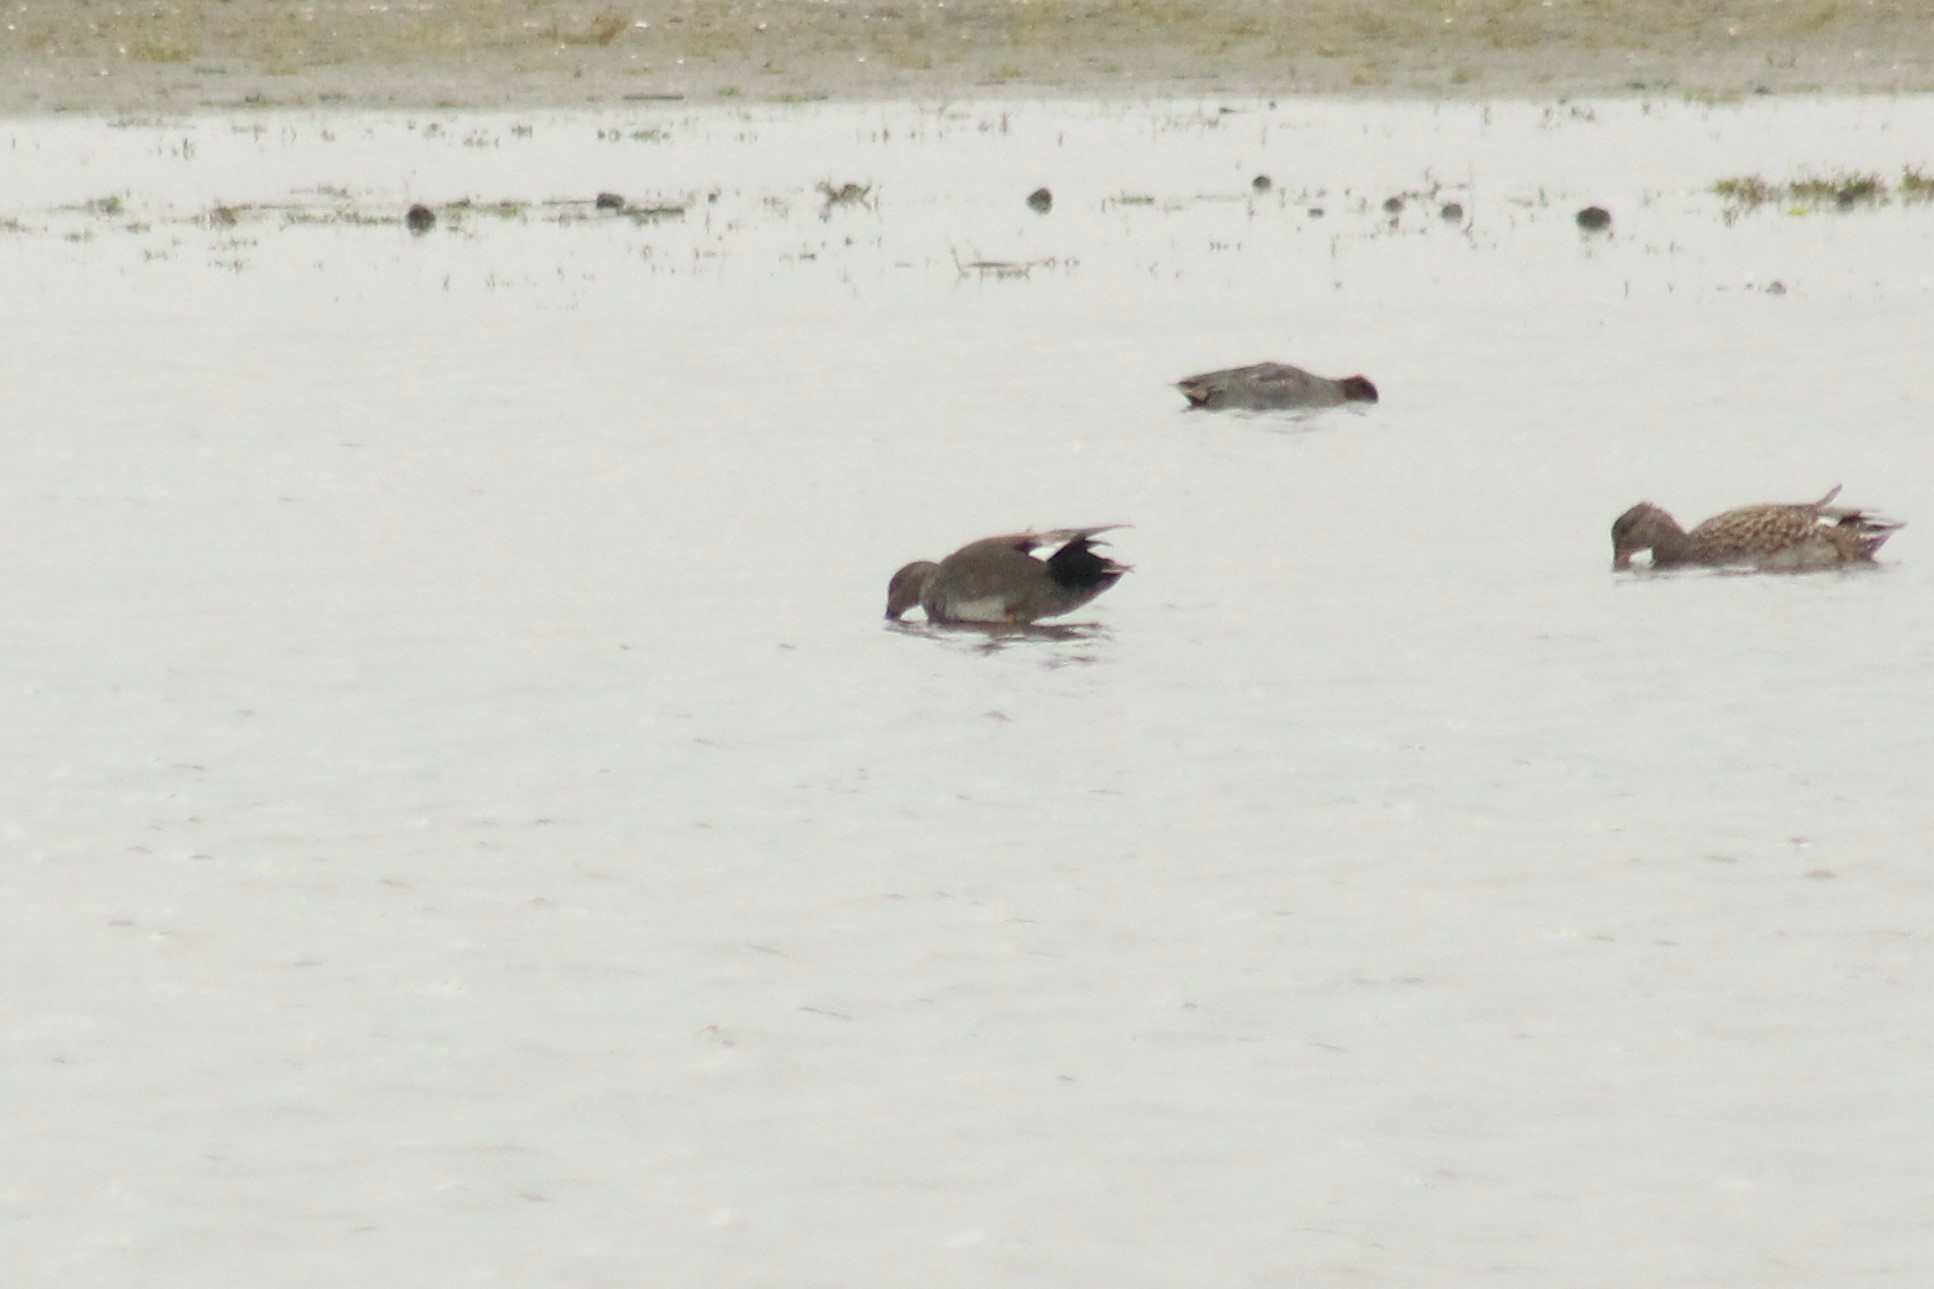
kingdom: Animalia
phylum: Chordata
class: Aves
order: Anseriformes
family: Anatidae
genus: Mareca
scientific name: Mareca strepera
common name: Gadwall
